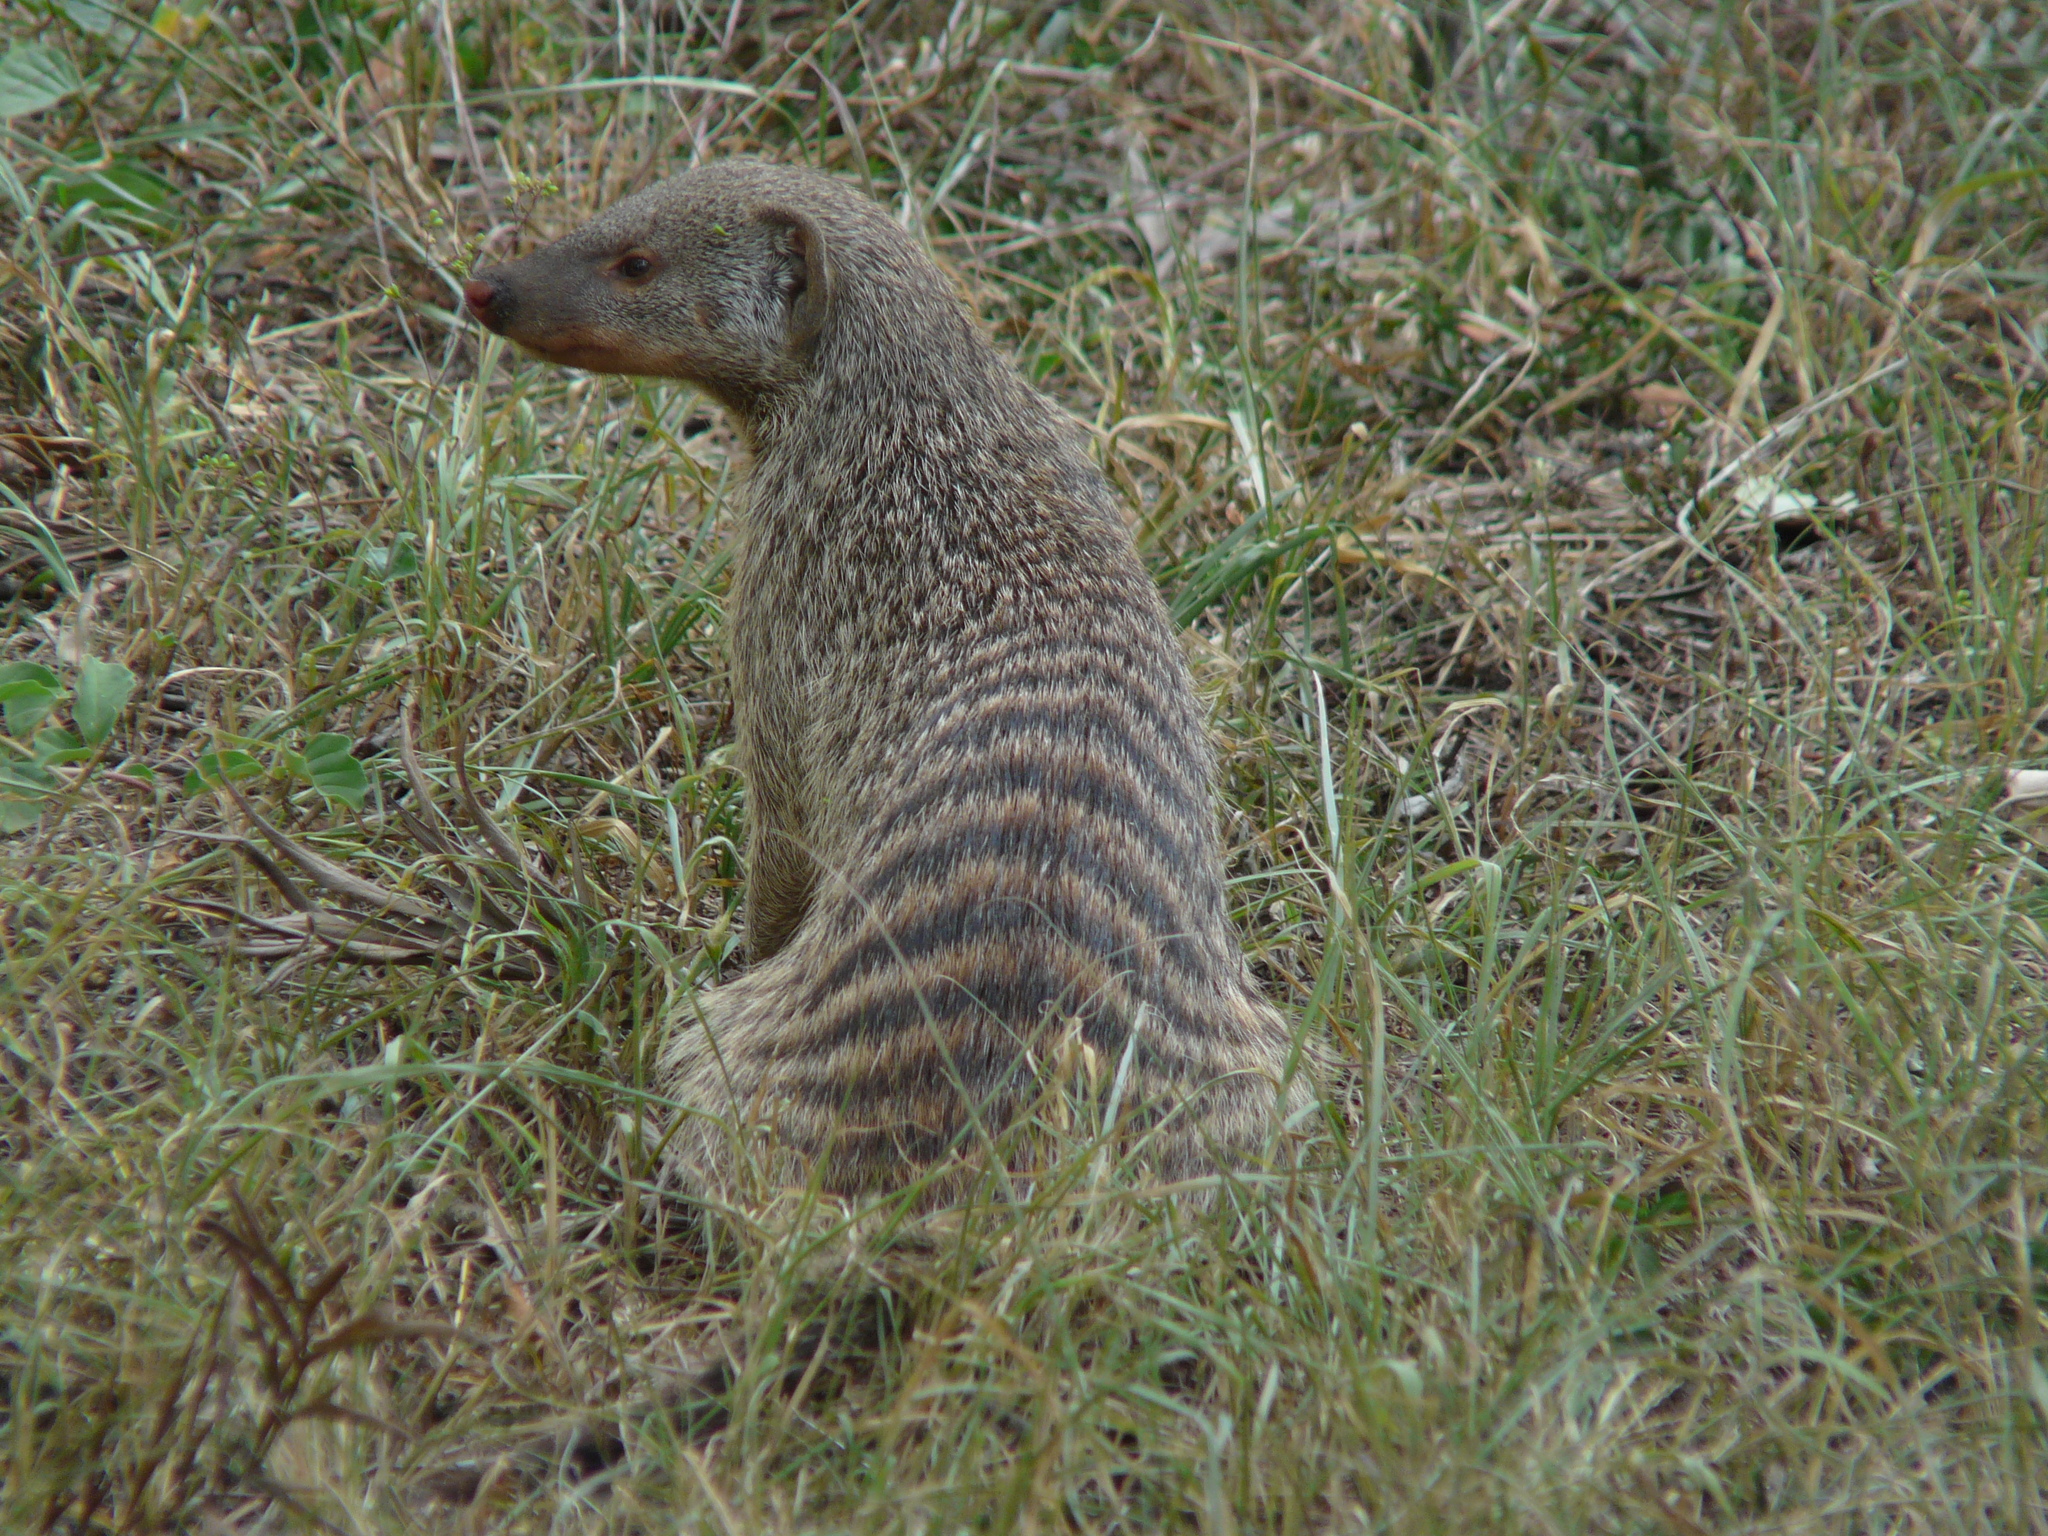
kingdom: Animalia
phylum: Chordata
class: Mammalia
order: Carnivora
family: Herpestidae
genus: Mungos
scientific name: Mungos mungo
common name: Banded mongoose
